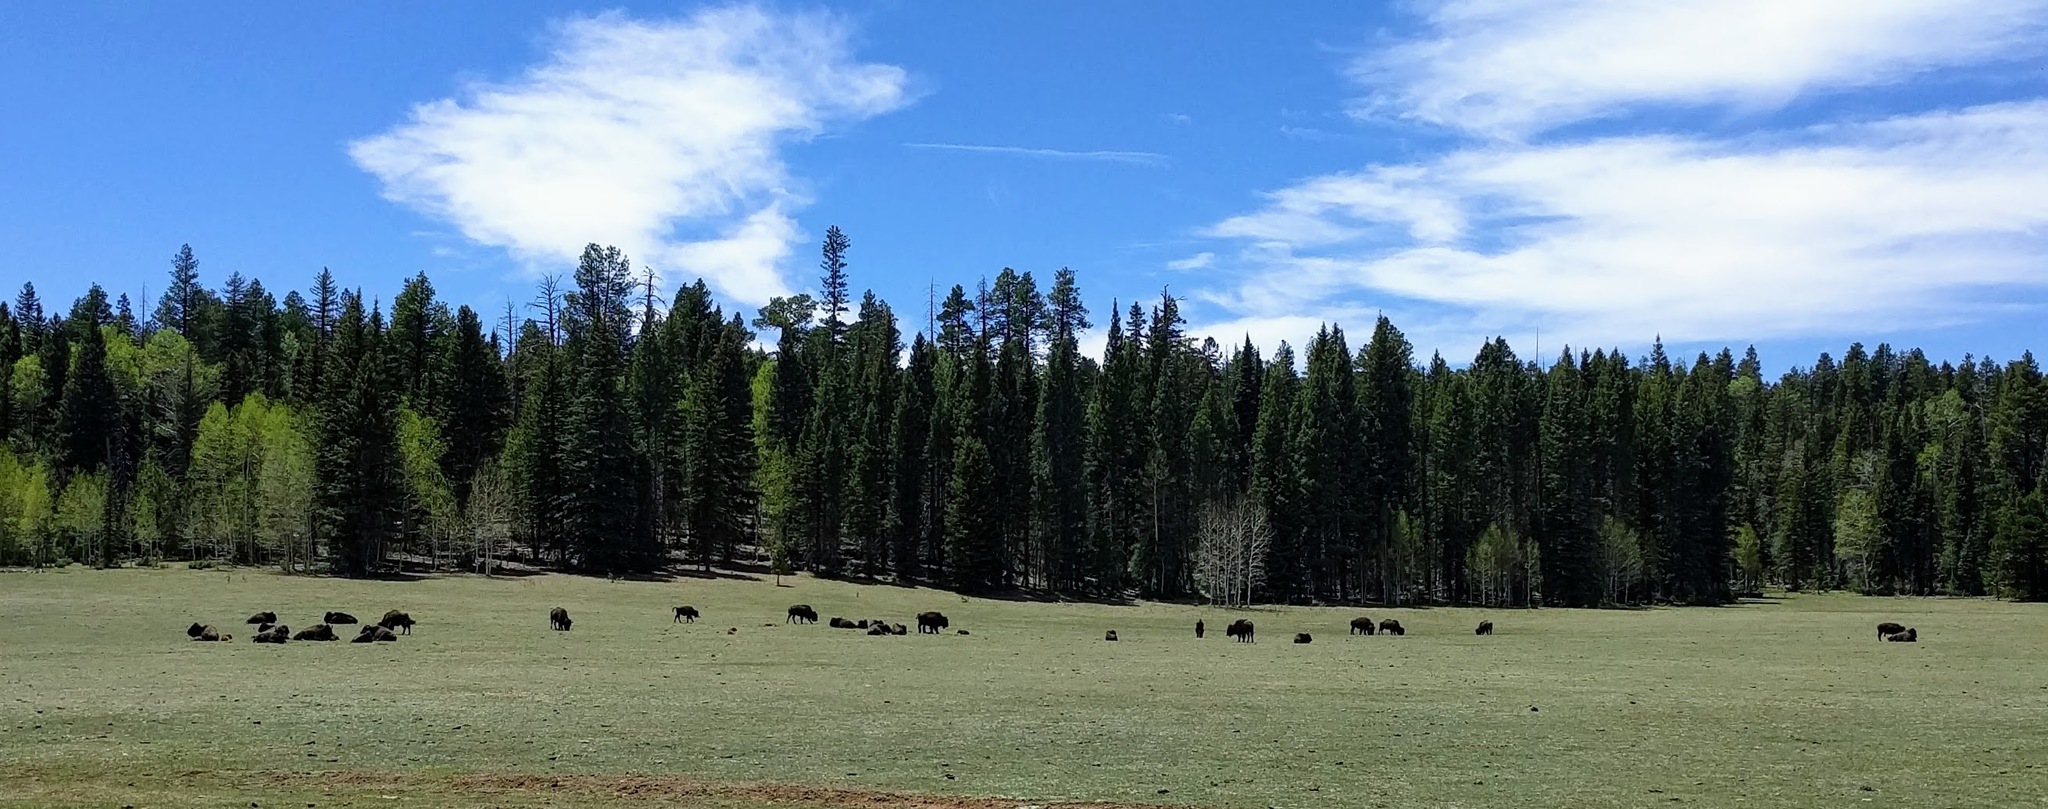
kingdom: Animalia
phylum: Chordata
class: Mammalia
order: Artiodactyla
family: Bovidae
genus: Bison
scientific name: Bison bison
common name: American bison
